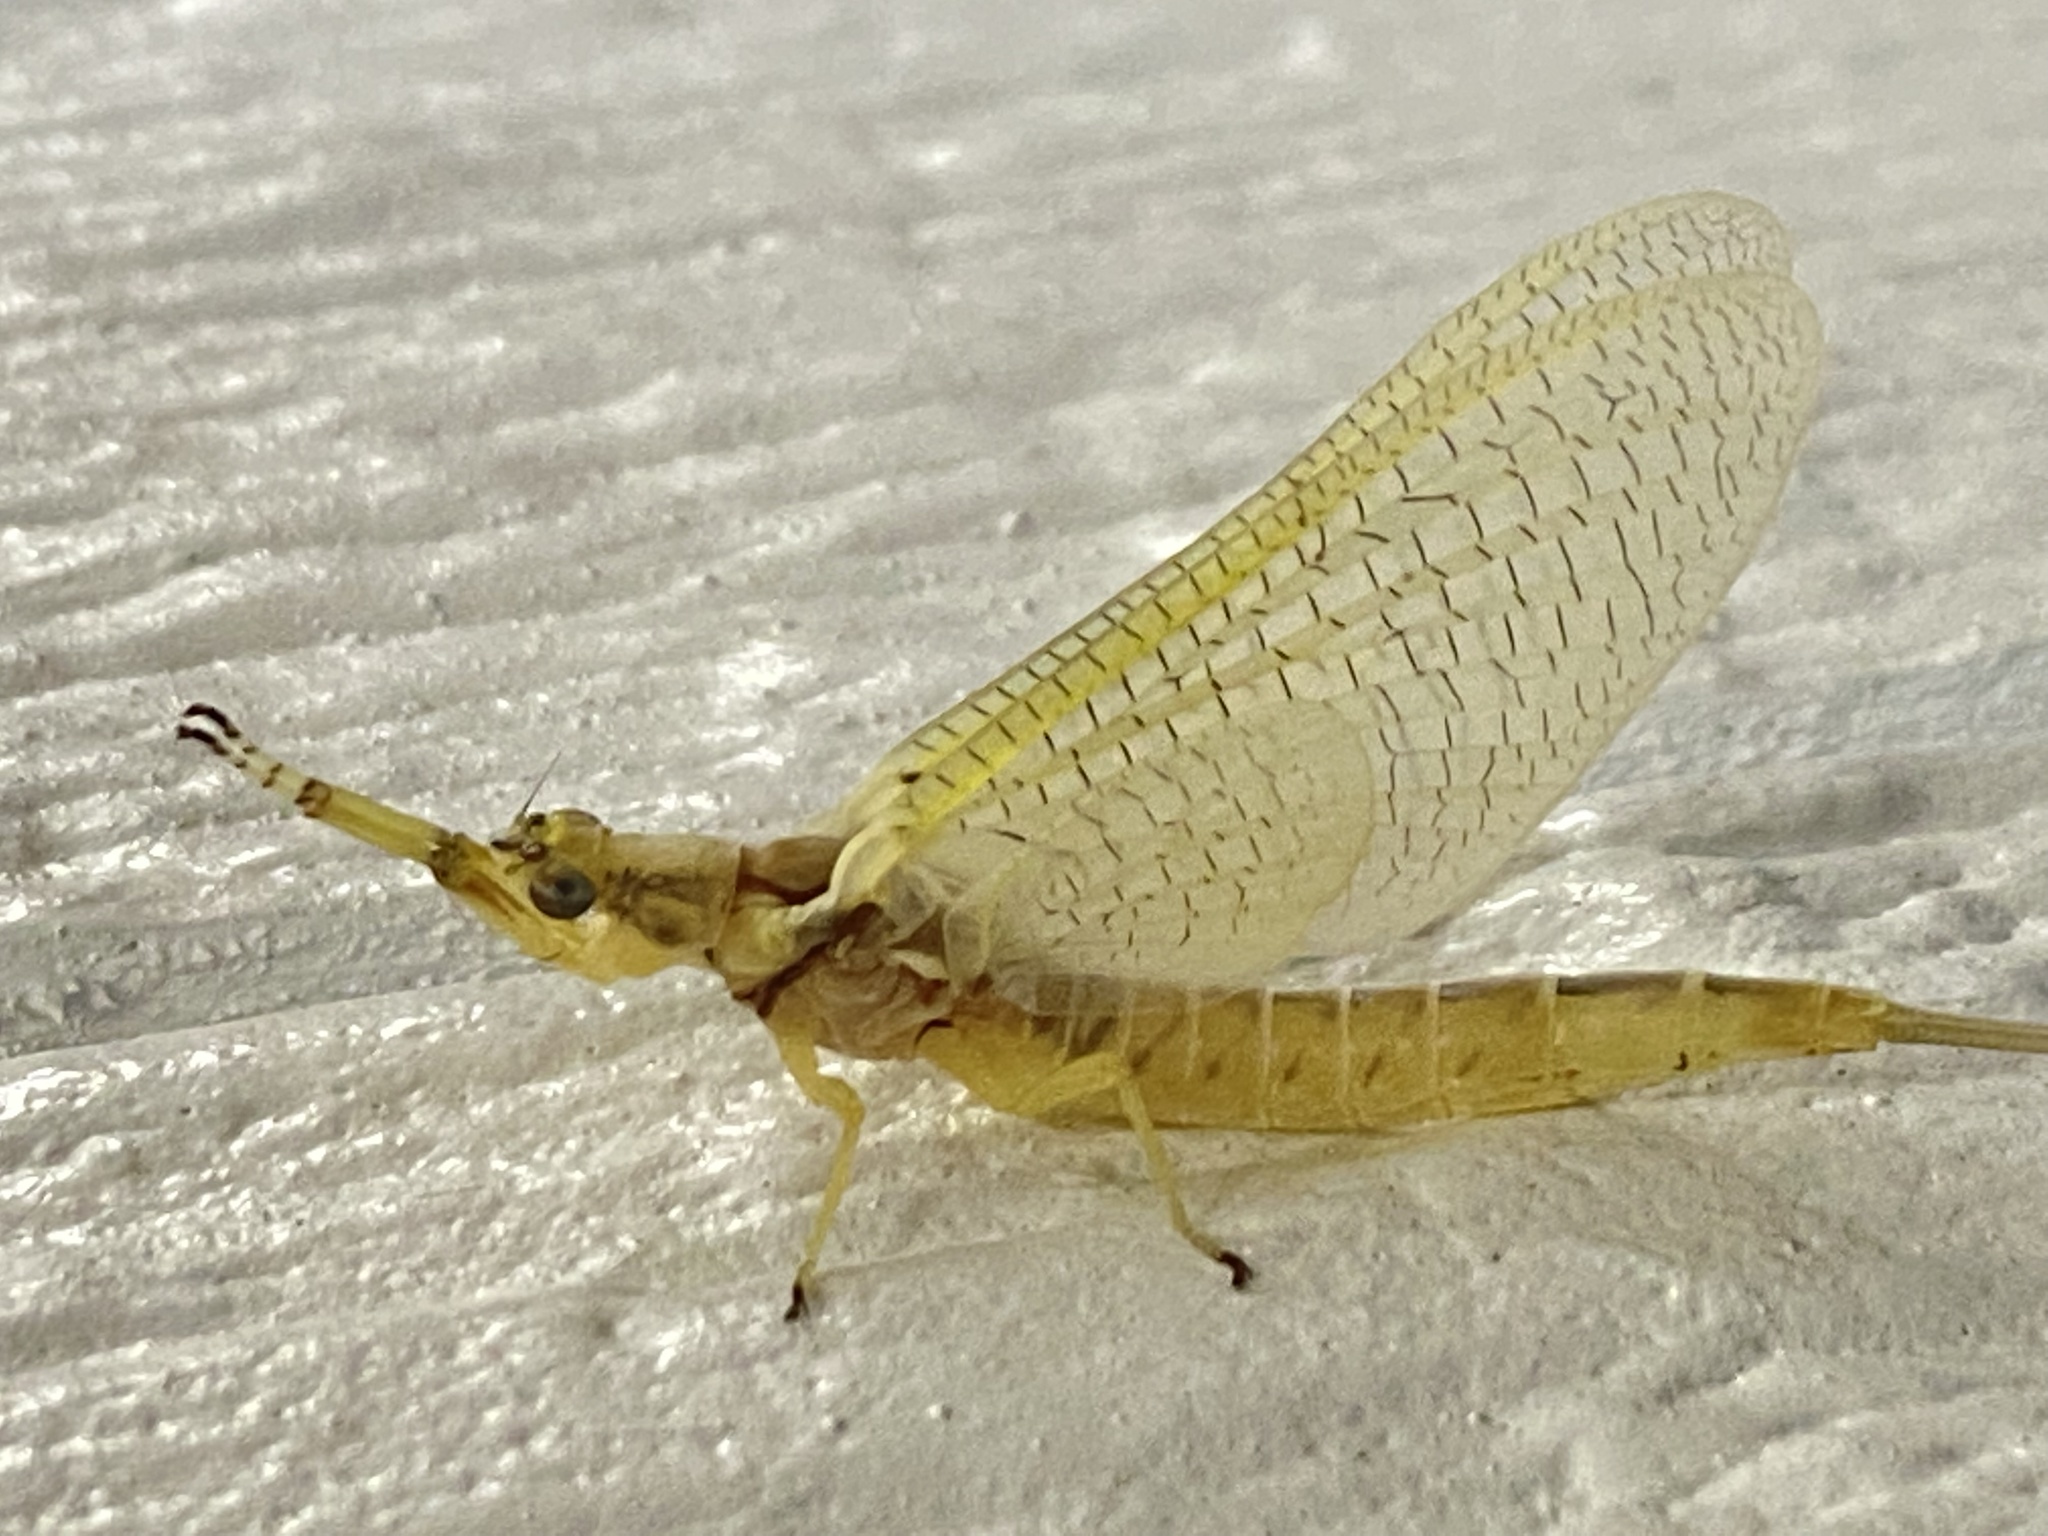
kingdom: Animalia
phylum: Arthropoda
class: Insecta
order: Ephemeroptera
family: Ephemeridae
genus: Hexagenia
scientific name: Hexagenia limbata
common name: Giant mayfly
